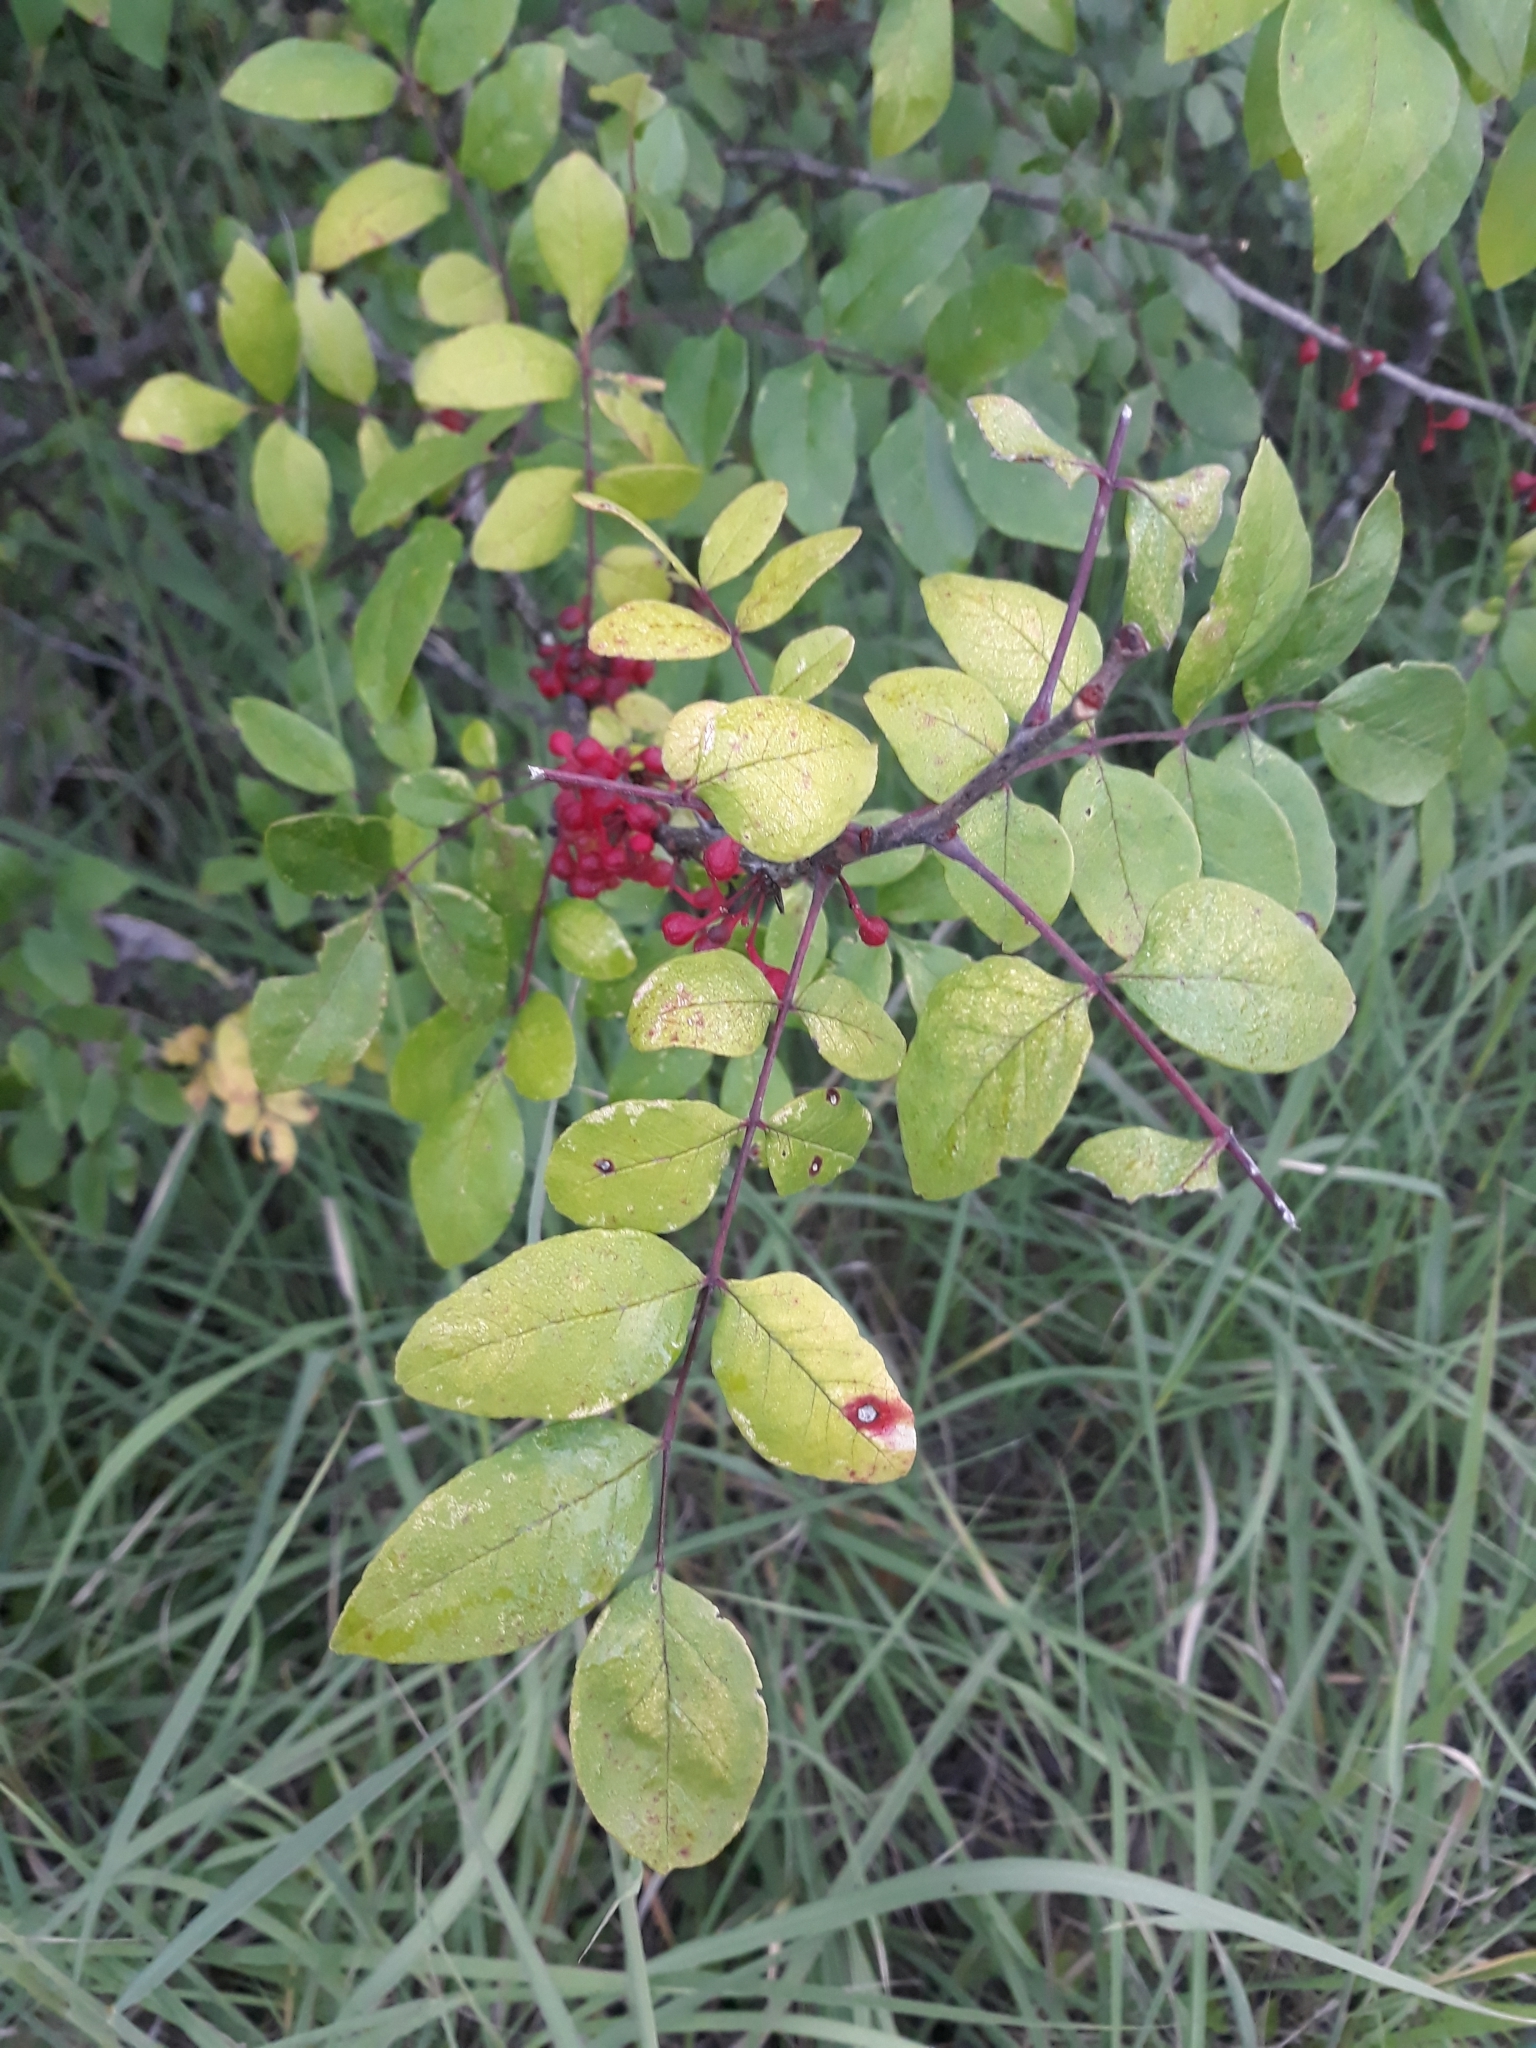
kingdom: Plantae
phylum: Tracheophyta
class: Magnoliopsida
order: Sapindales
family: Rutaceae
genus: Zanthoxylum
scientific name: Zanthoxylum americanum
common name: Northern prickly-ash
